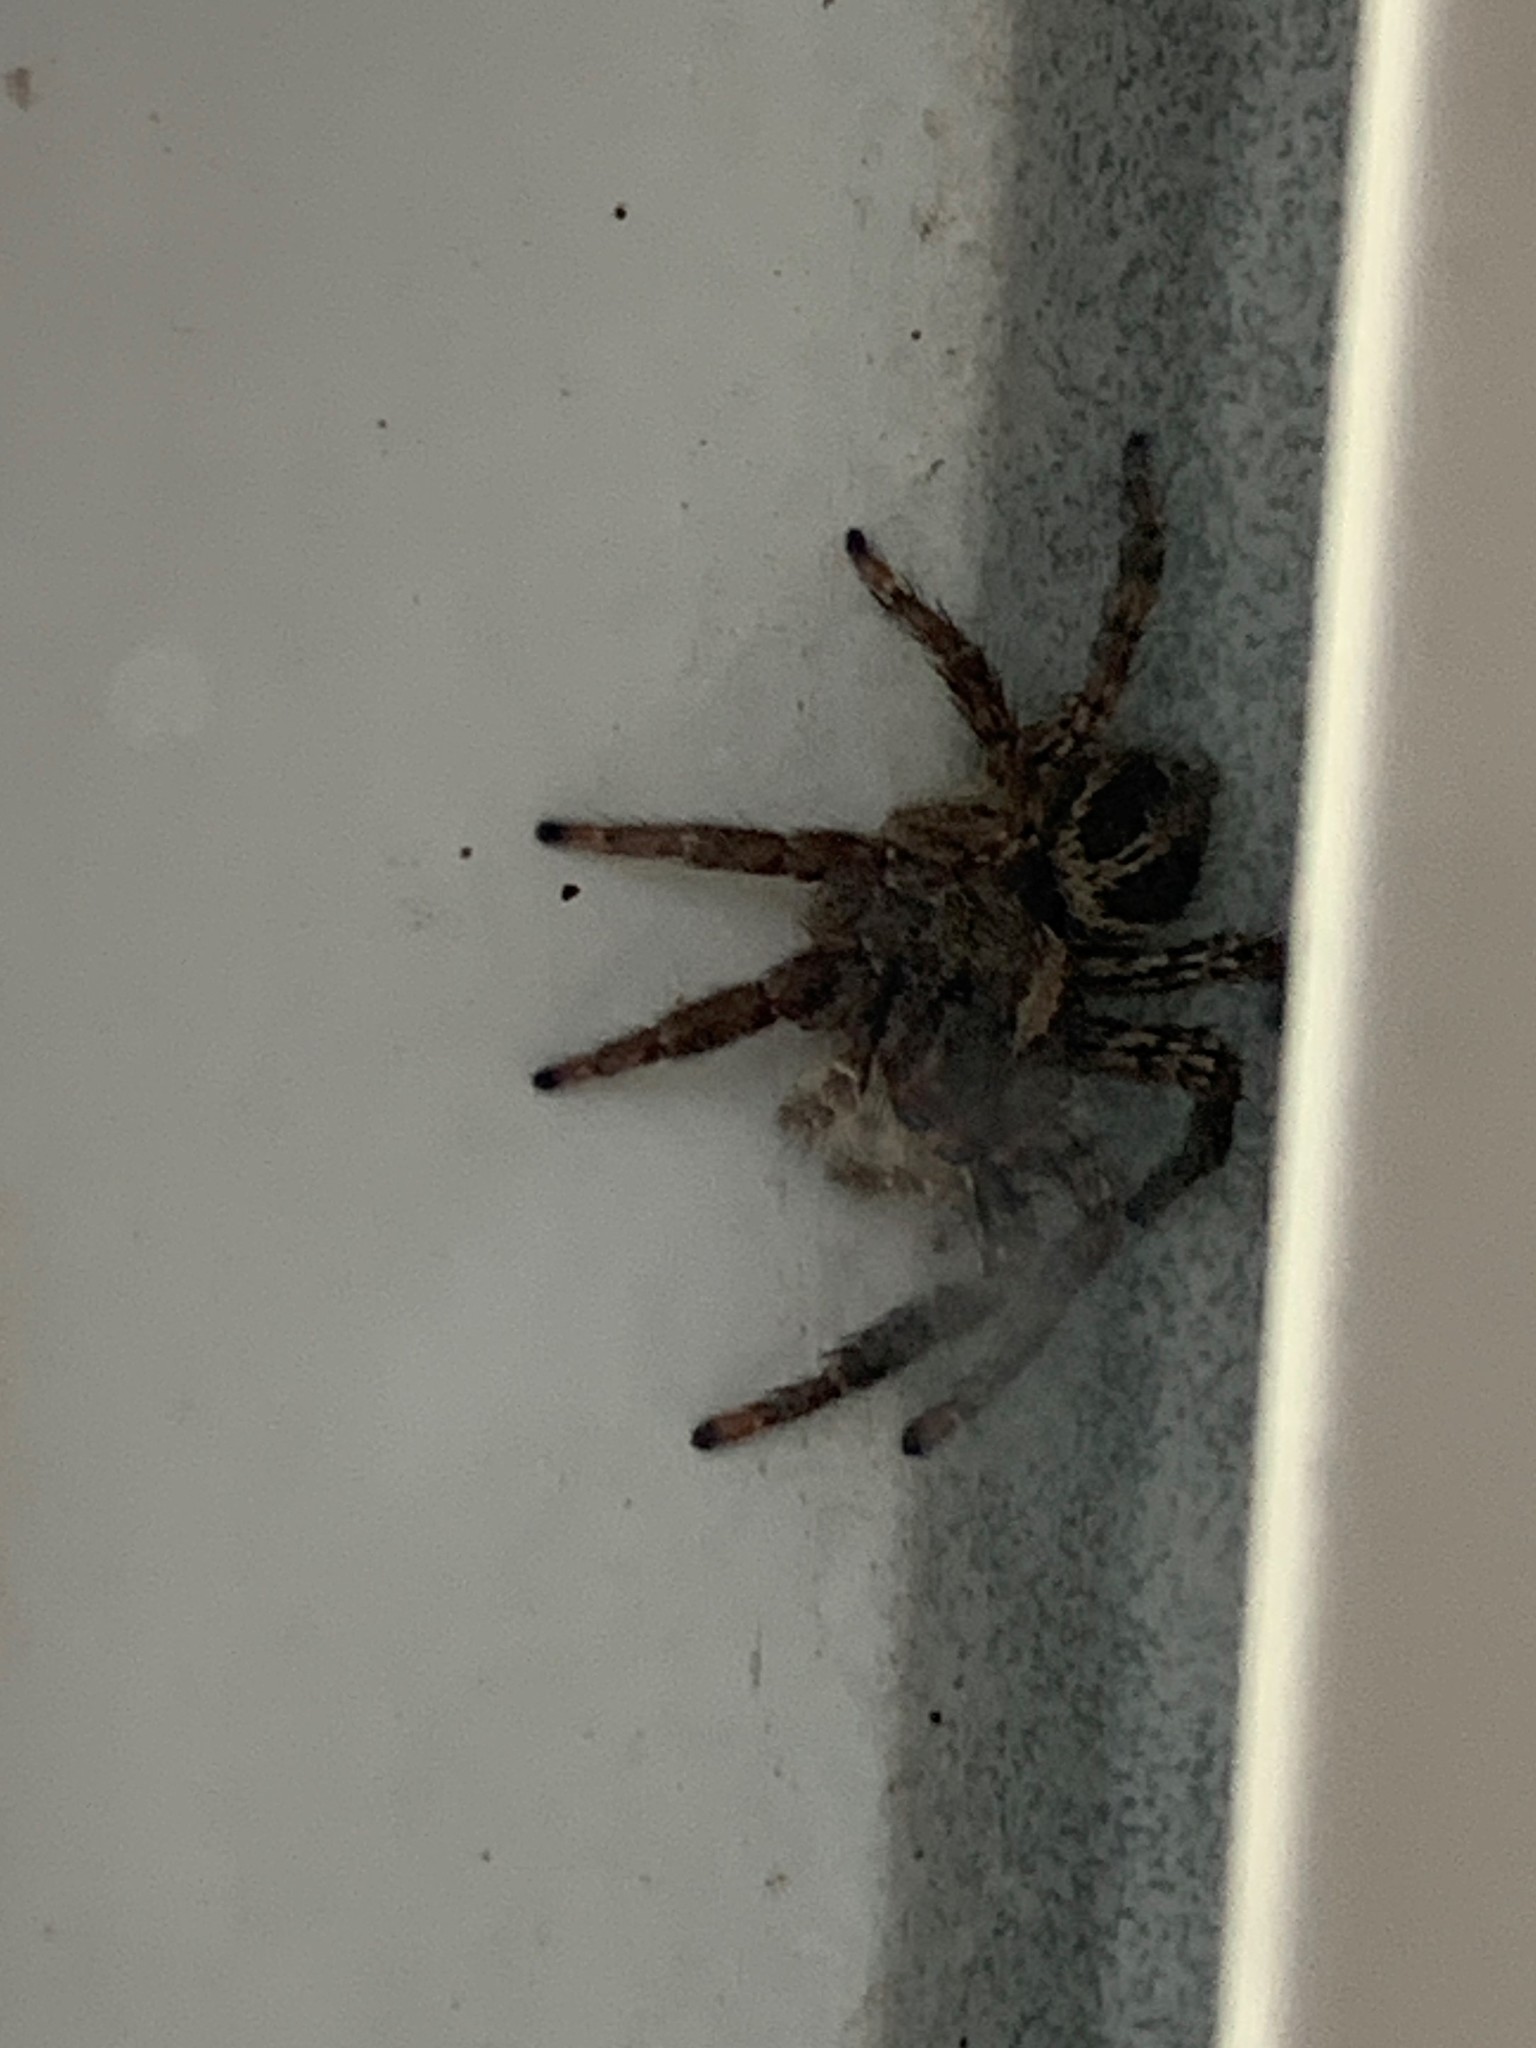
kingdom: Animalia
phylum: Arthropoda
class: Arachnida
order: Araneae
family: Salticidae
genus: Plexippus
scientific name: Plexippus paykulli
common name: Pantropical jumper
